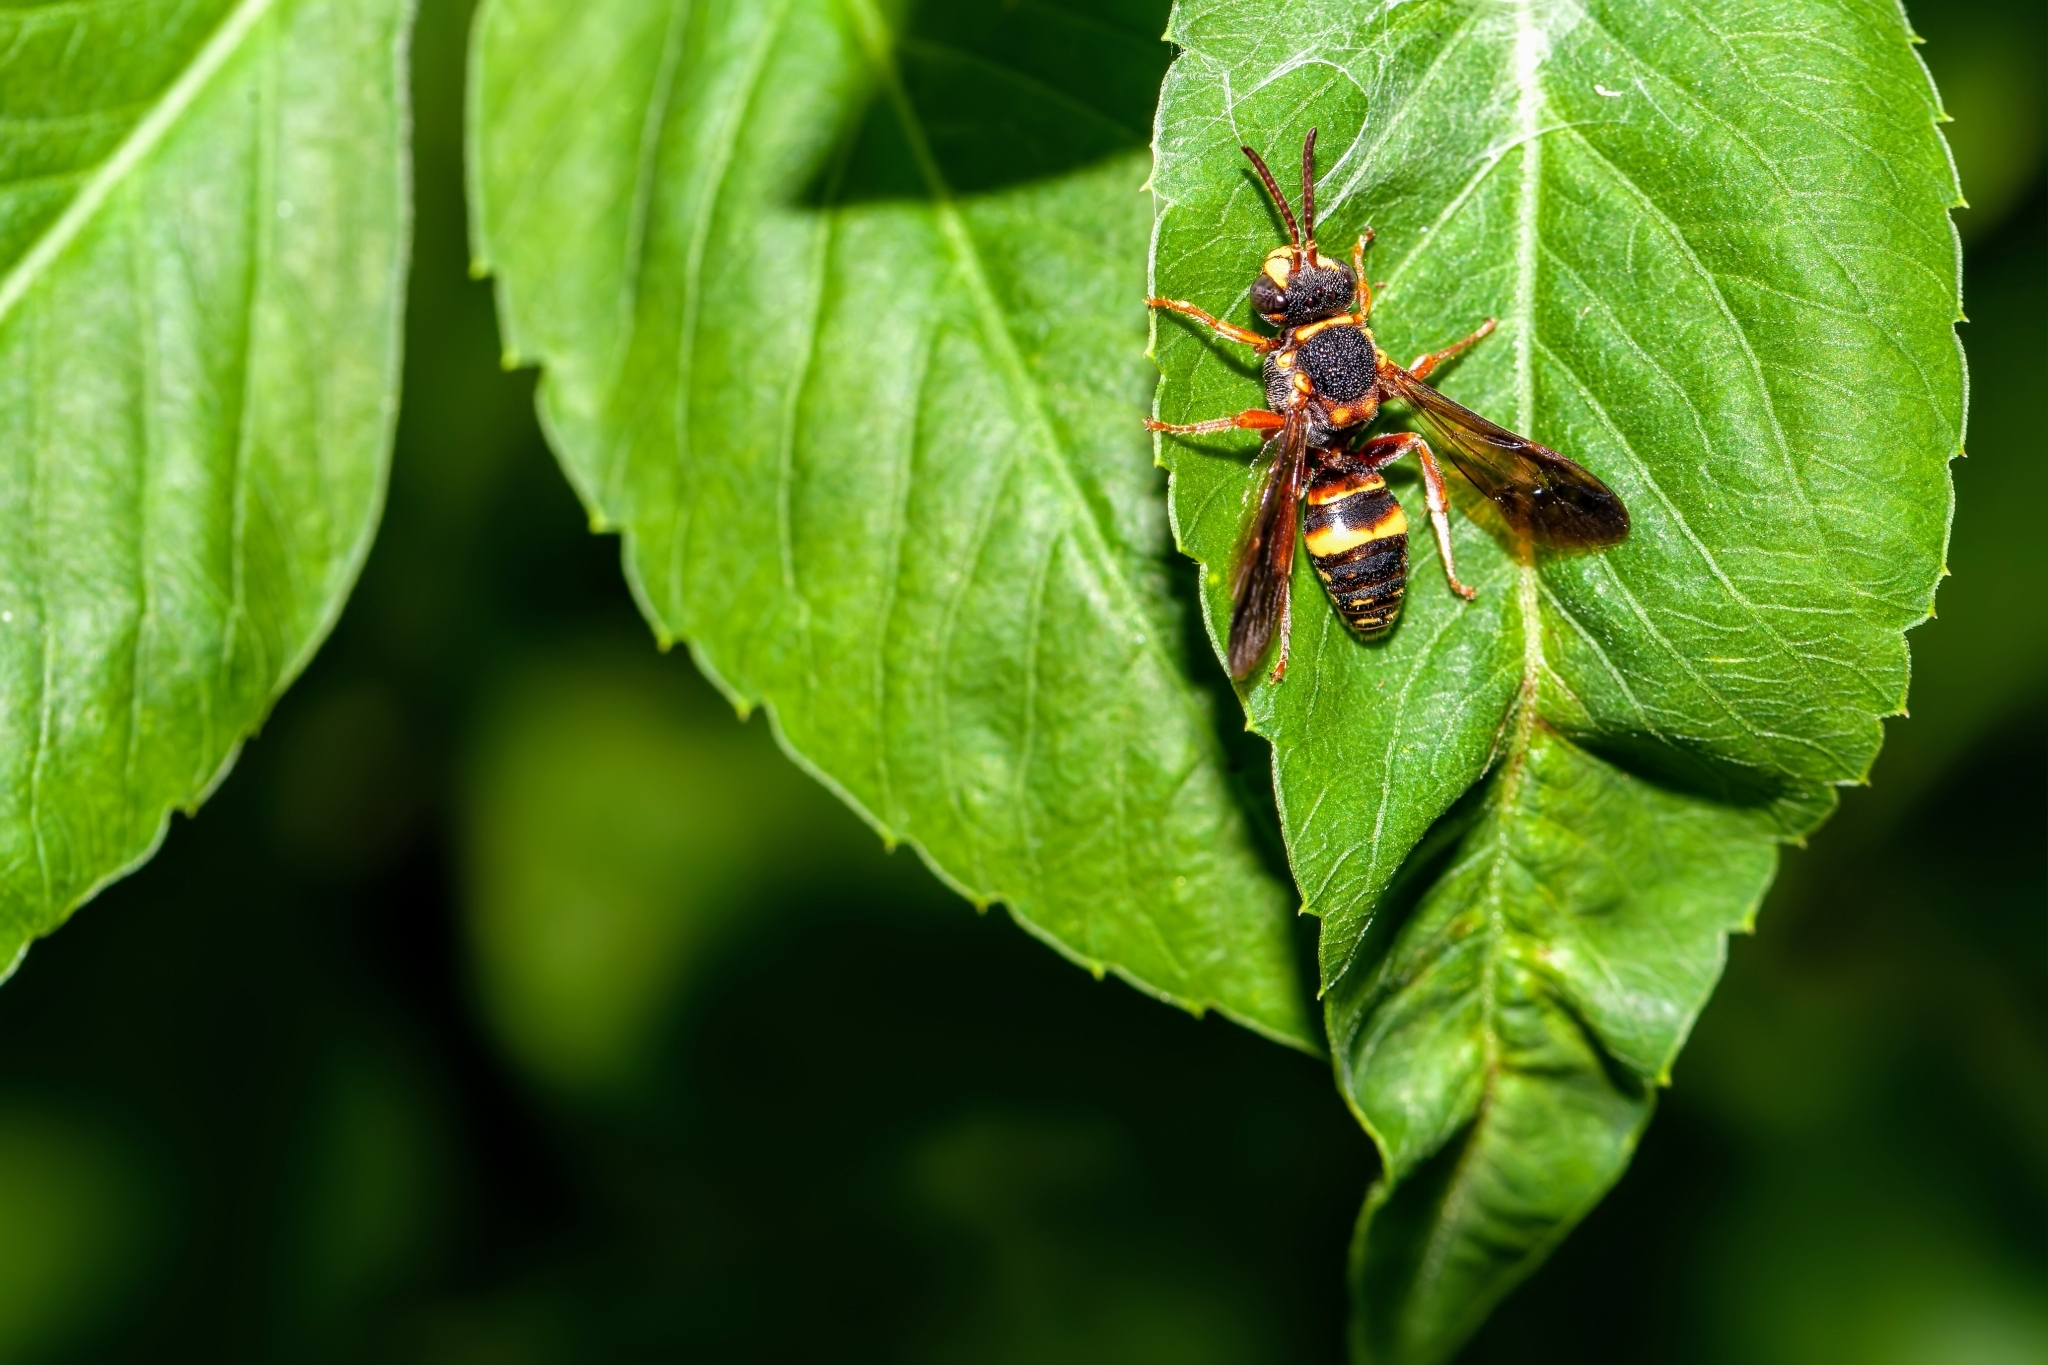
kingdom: Animalia
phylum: Arthropoda
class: Insecta
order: Hymenoptera
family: Apidae
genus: Nomada
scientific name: Nomada fervida
